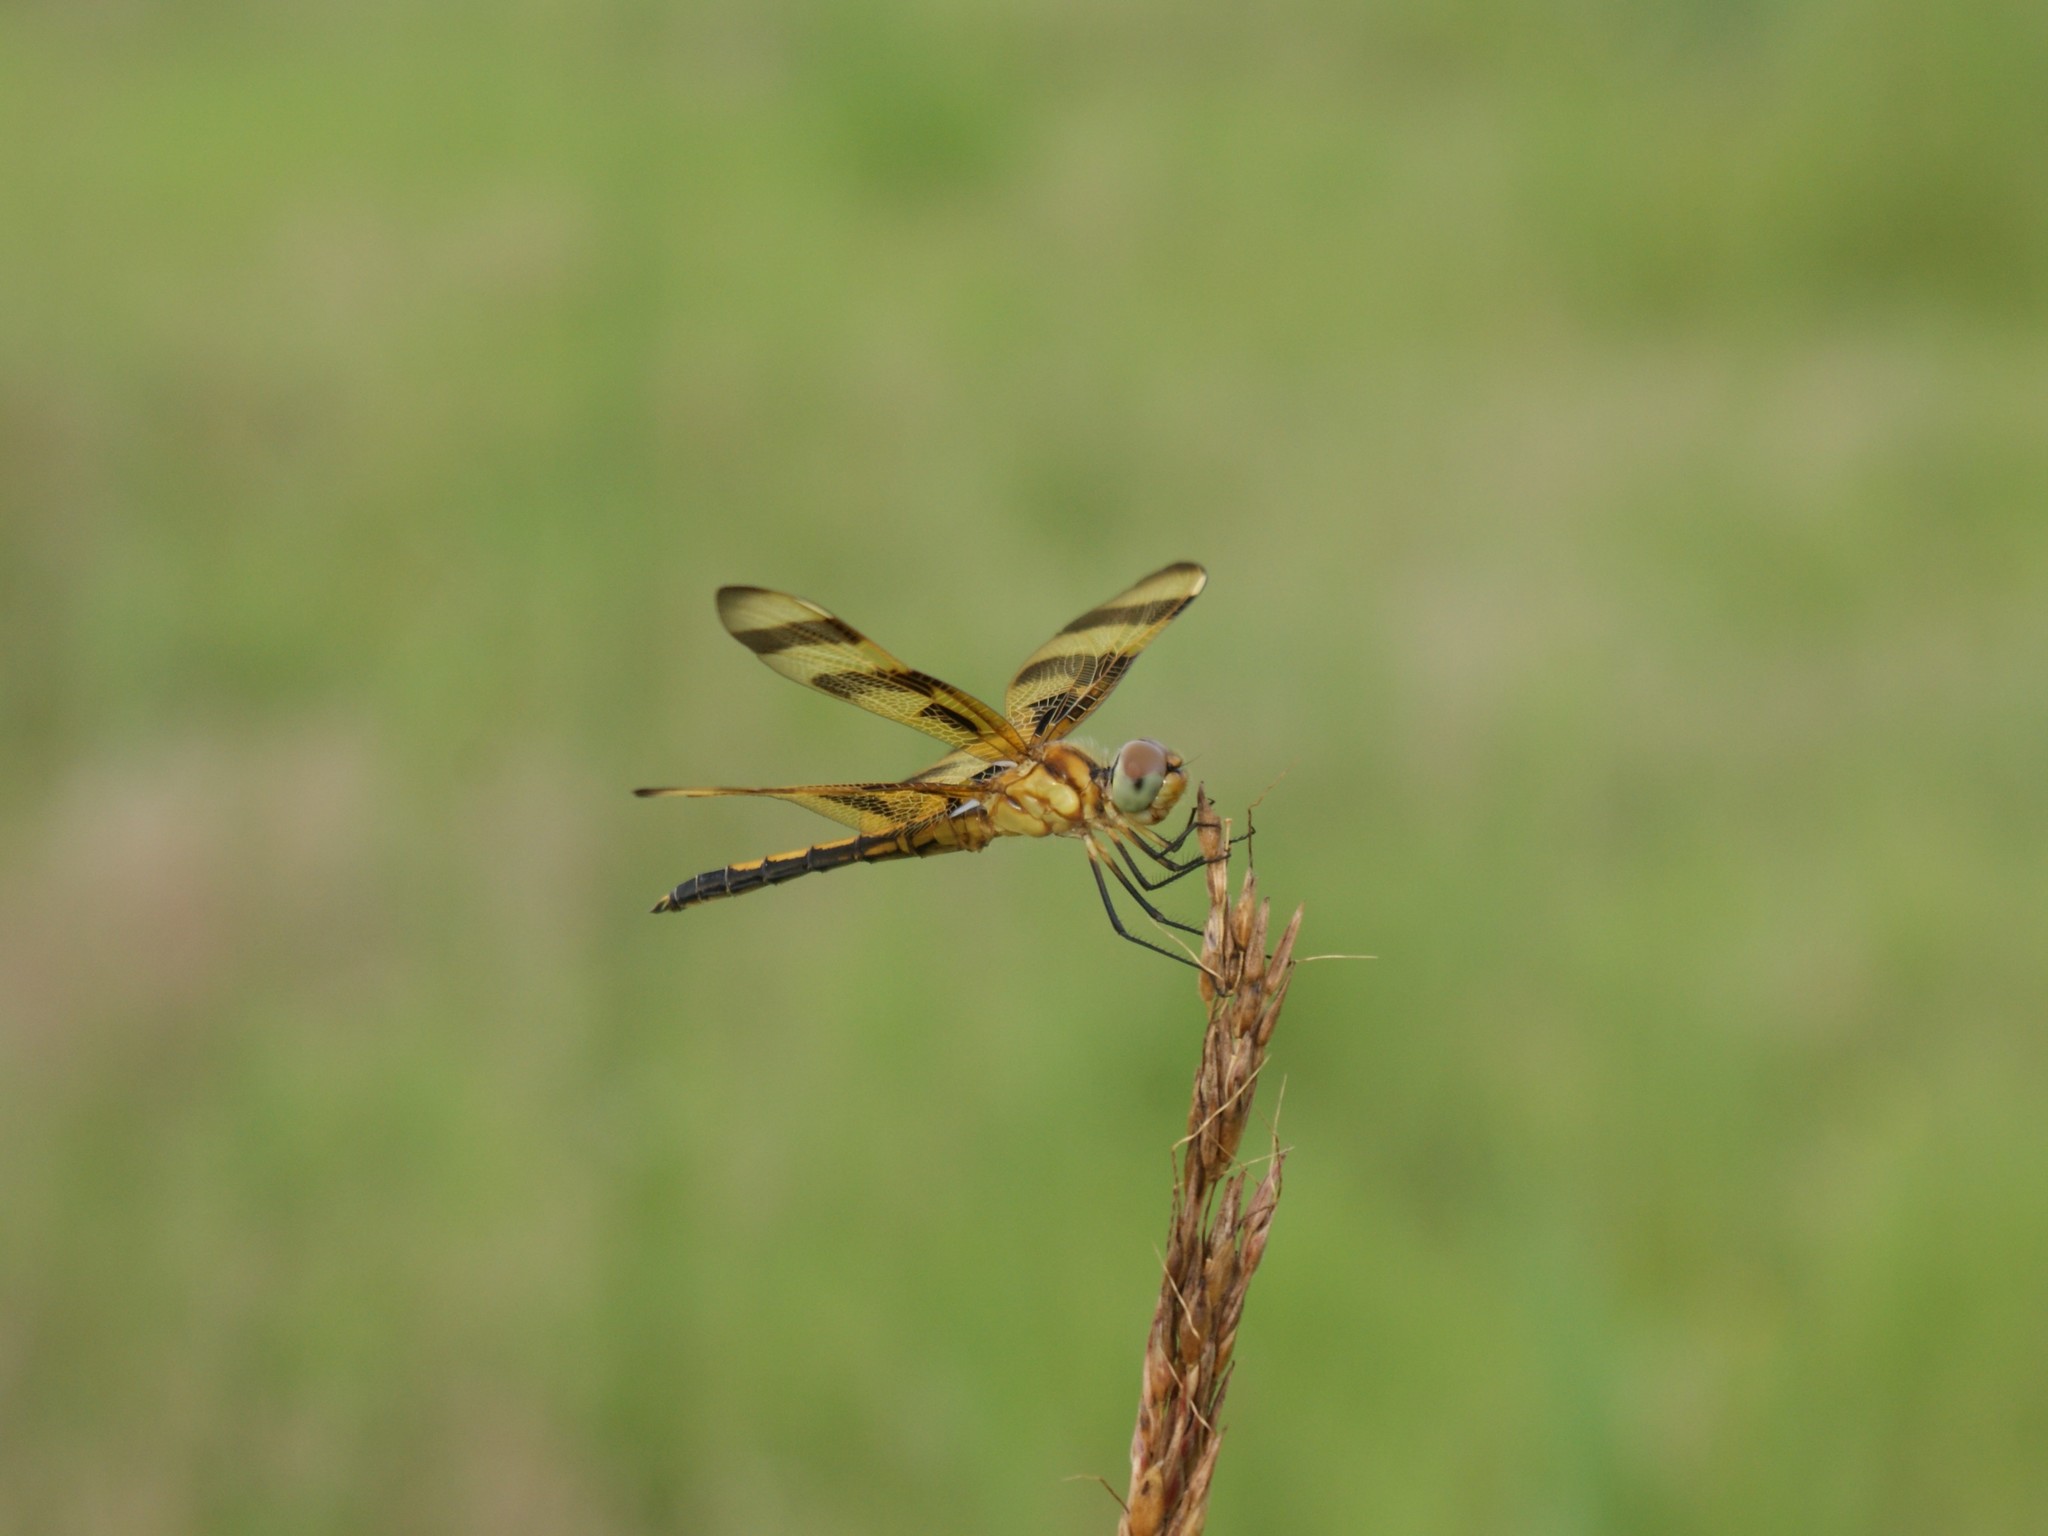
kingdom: Animalia
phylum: Arthropoda
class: Insecta
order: Odonata
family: Libellulidae
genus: Celithemis
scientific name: Celithemis eponina
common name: Halloween pennant
